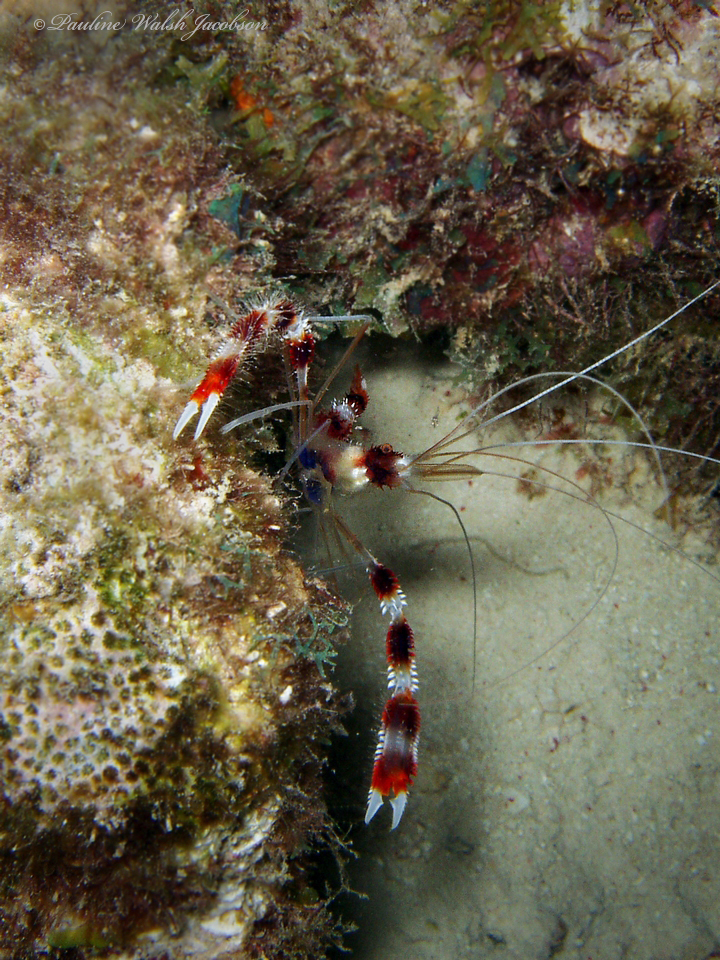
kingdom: Animalia
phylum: Arthropoda
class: Malacostraca
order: Decapoda
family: Stenopodidae
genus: Stenopus
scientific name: Stenopus hispidus
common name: Banded coral shrimp
